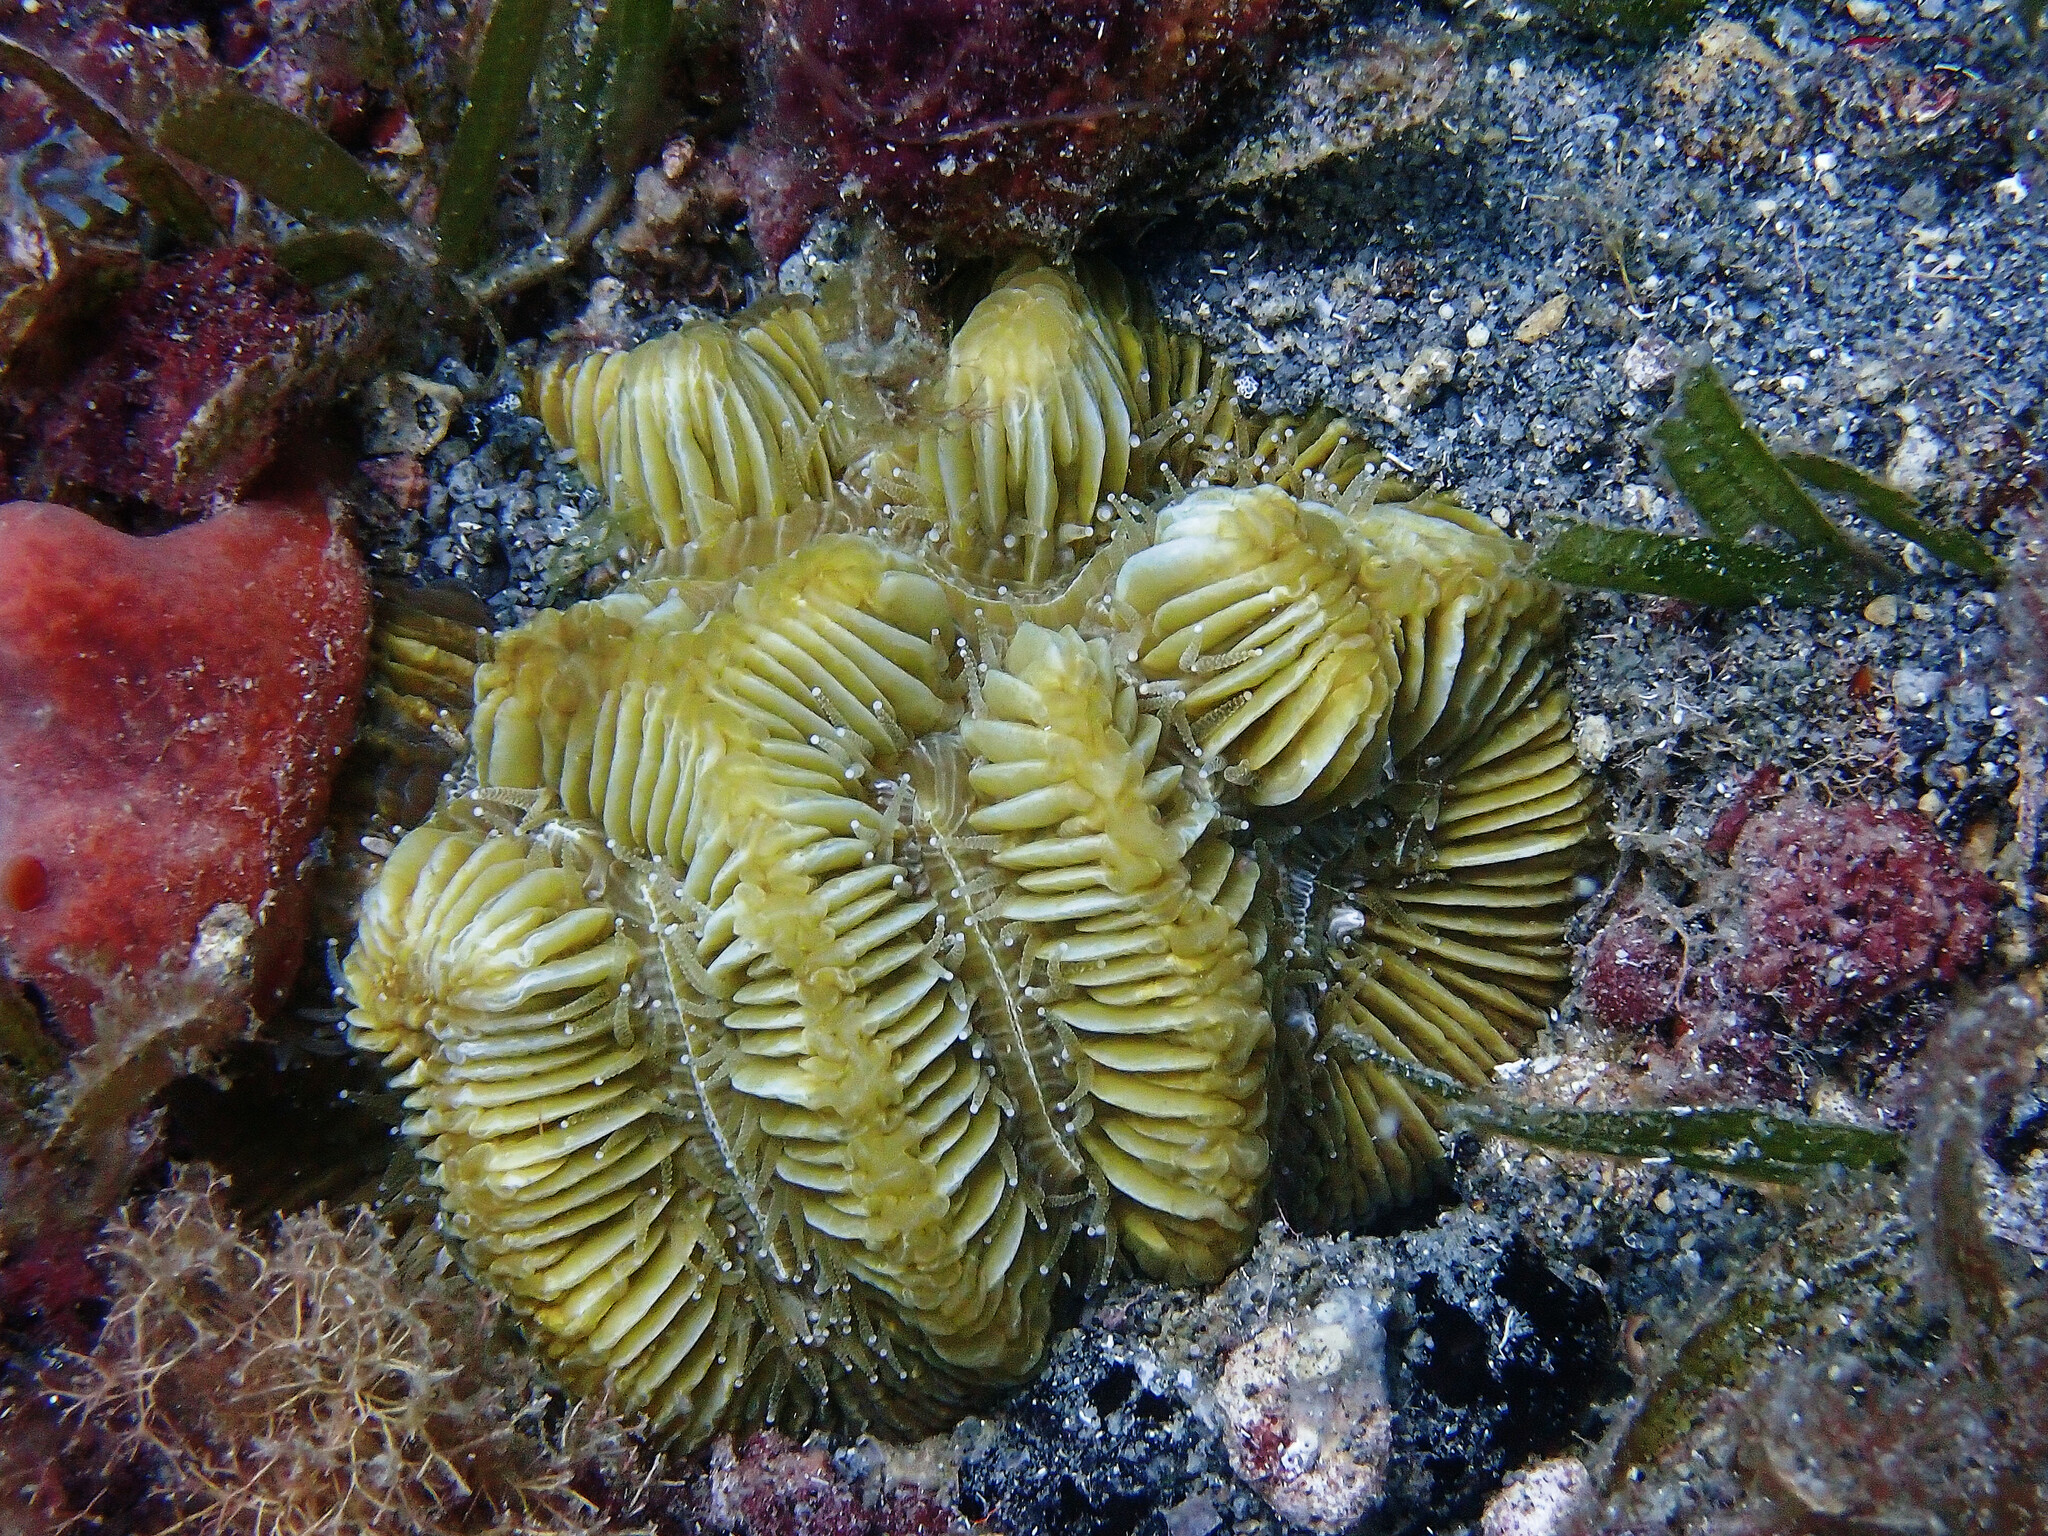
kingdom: Animalia
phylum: Cnidaria
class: Anthozoa
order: Scleractinia
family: Meandrinidae
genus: Meandrina
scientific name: Meandrina meandrites
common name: Maze coral
